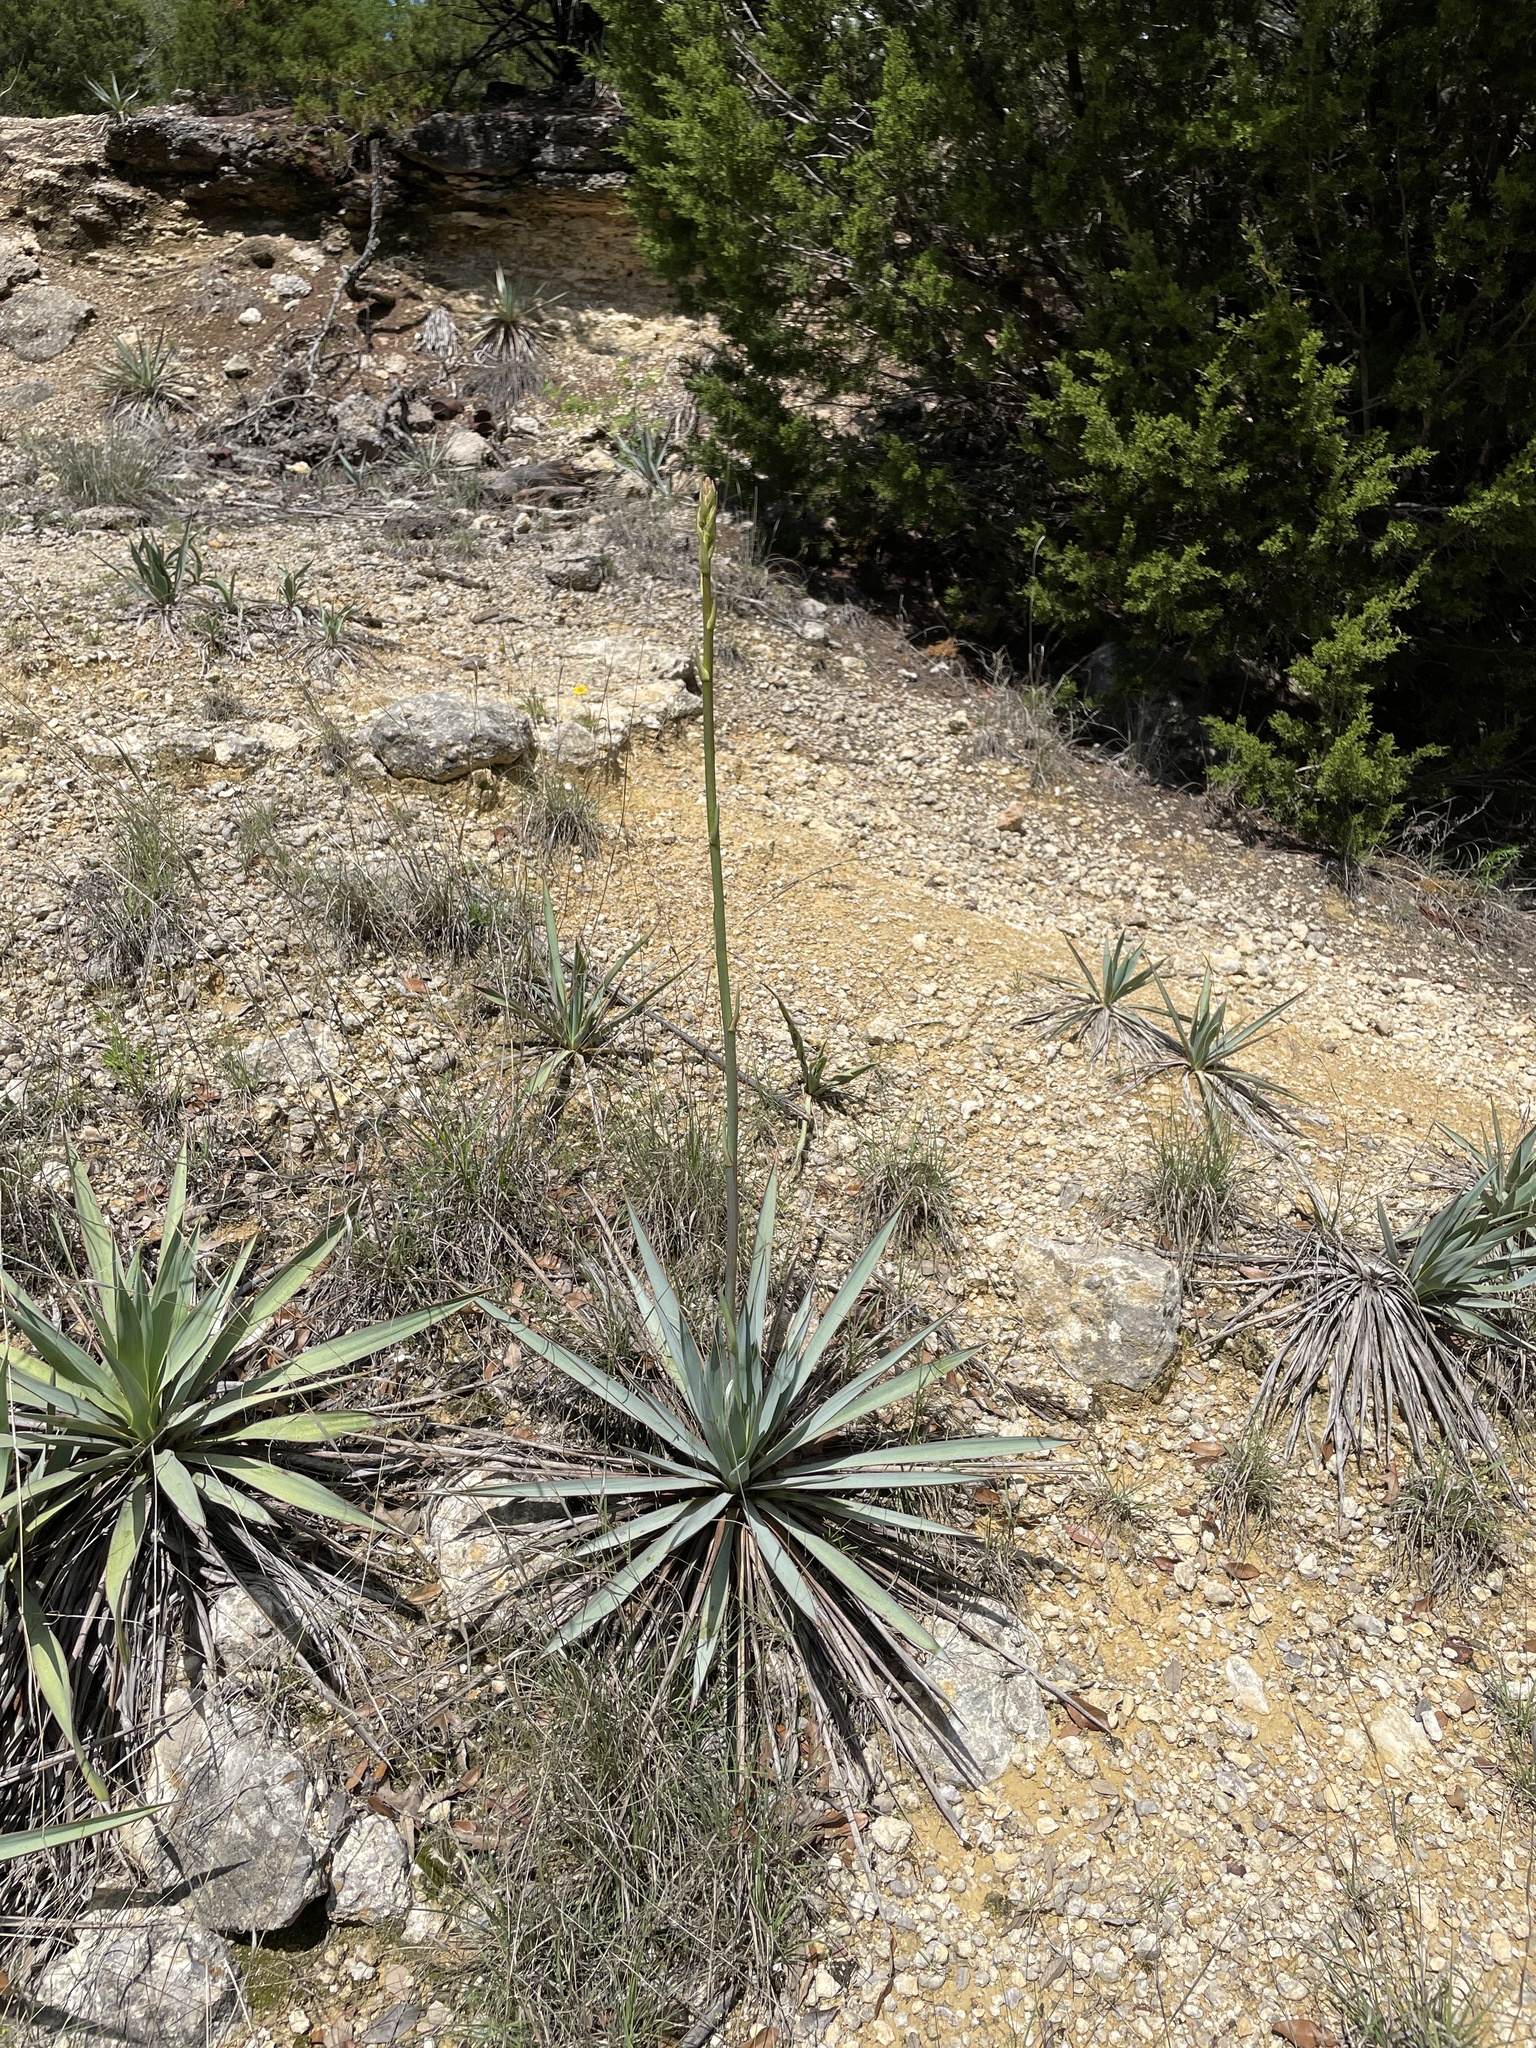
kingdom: Plantae
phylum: Tracheophyta
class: Liliopsida
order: Asparagales
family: Asparagaceae
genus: Yucca
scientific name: Yucca pallida
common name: Pale leaf yucca
